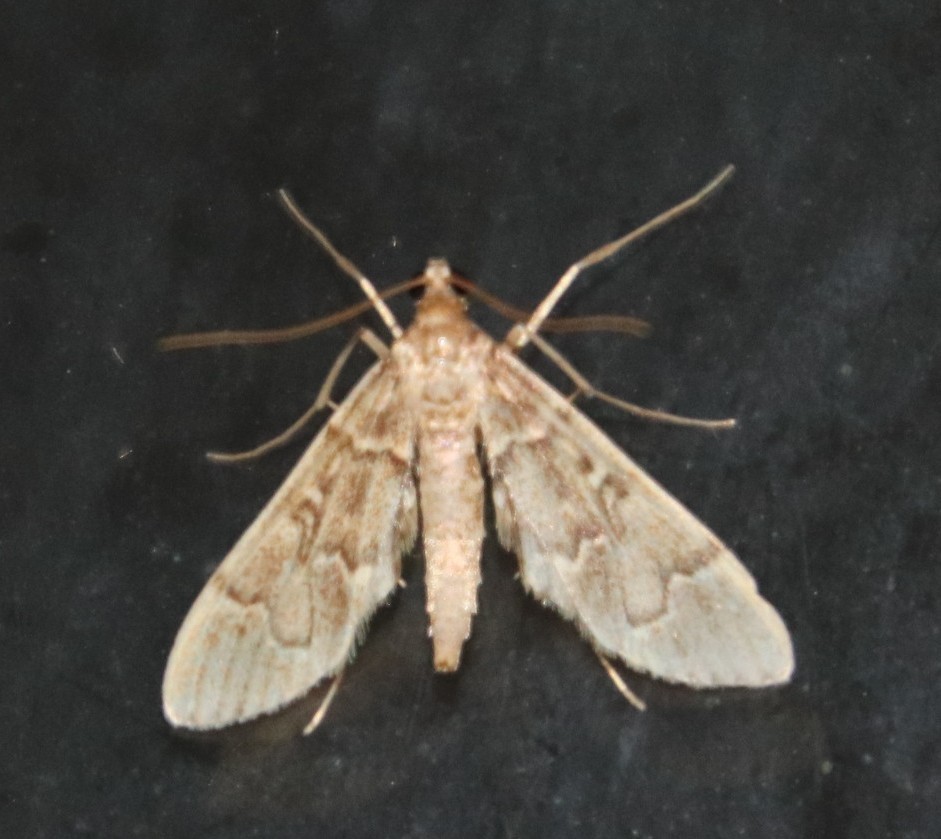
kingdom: Animalia
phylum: Arthropoda
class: Insecta
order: Lepidoptera
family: Crambidae
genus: Duponchelia
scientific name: Duponchelia lanceolalis
